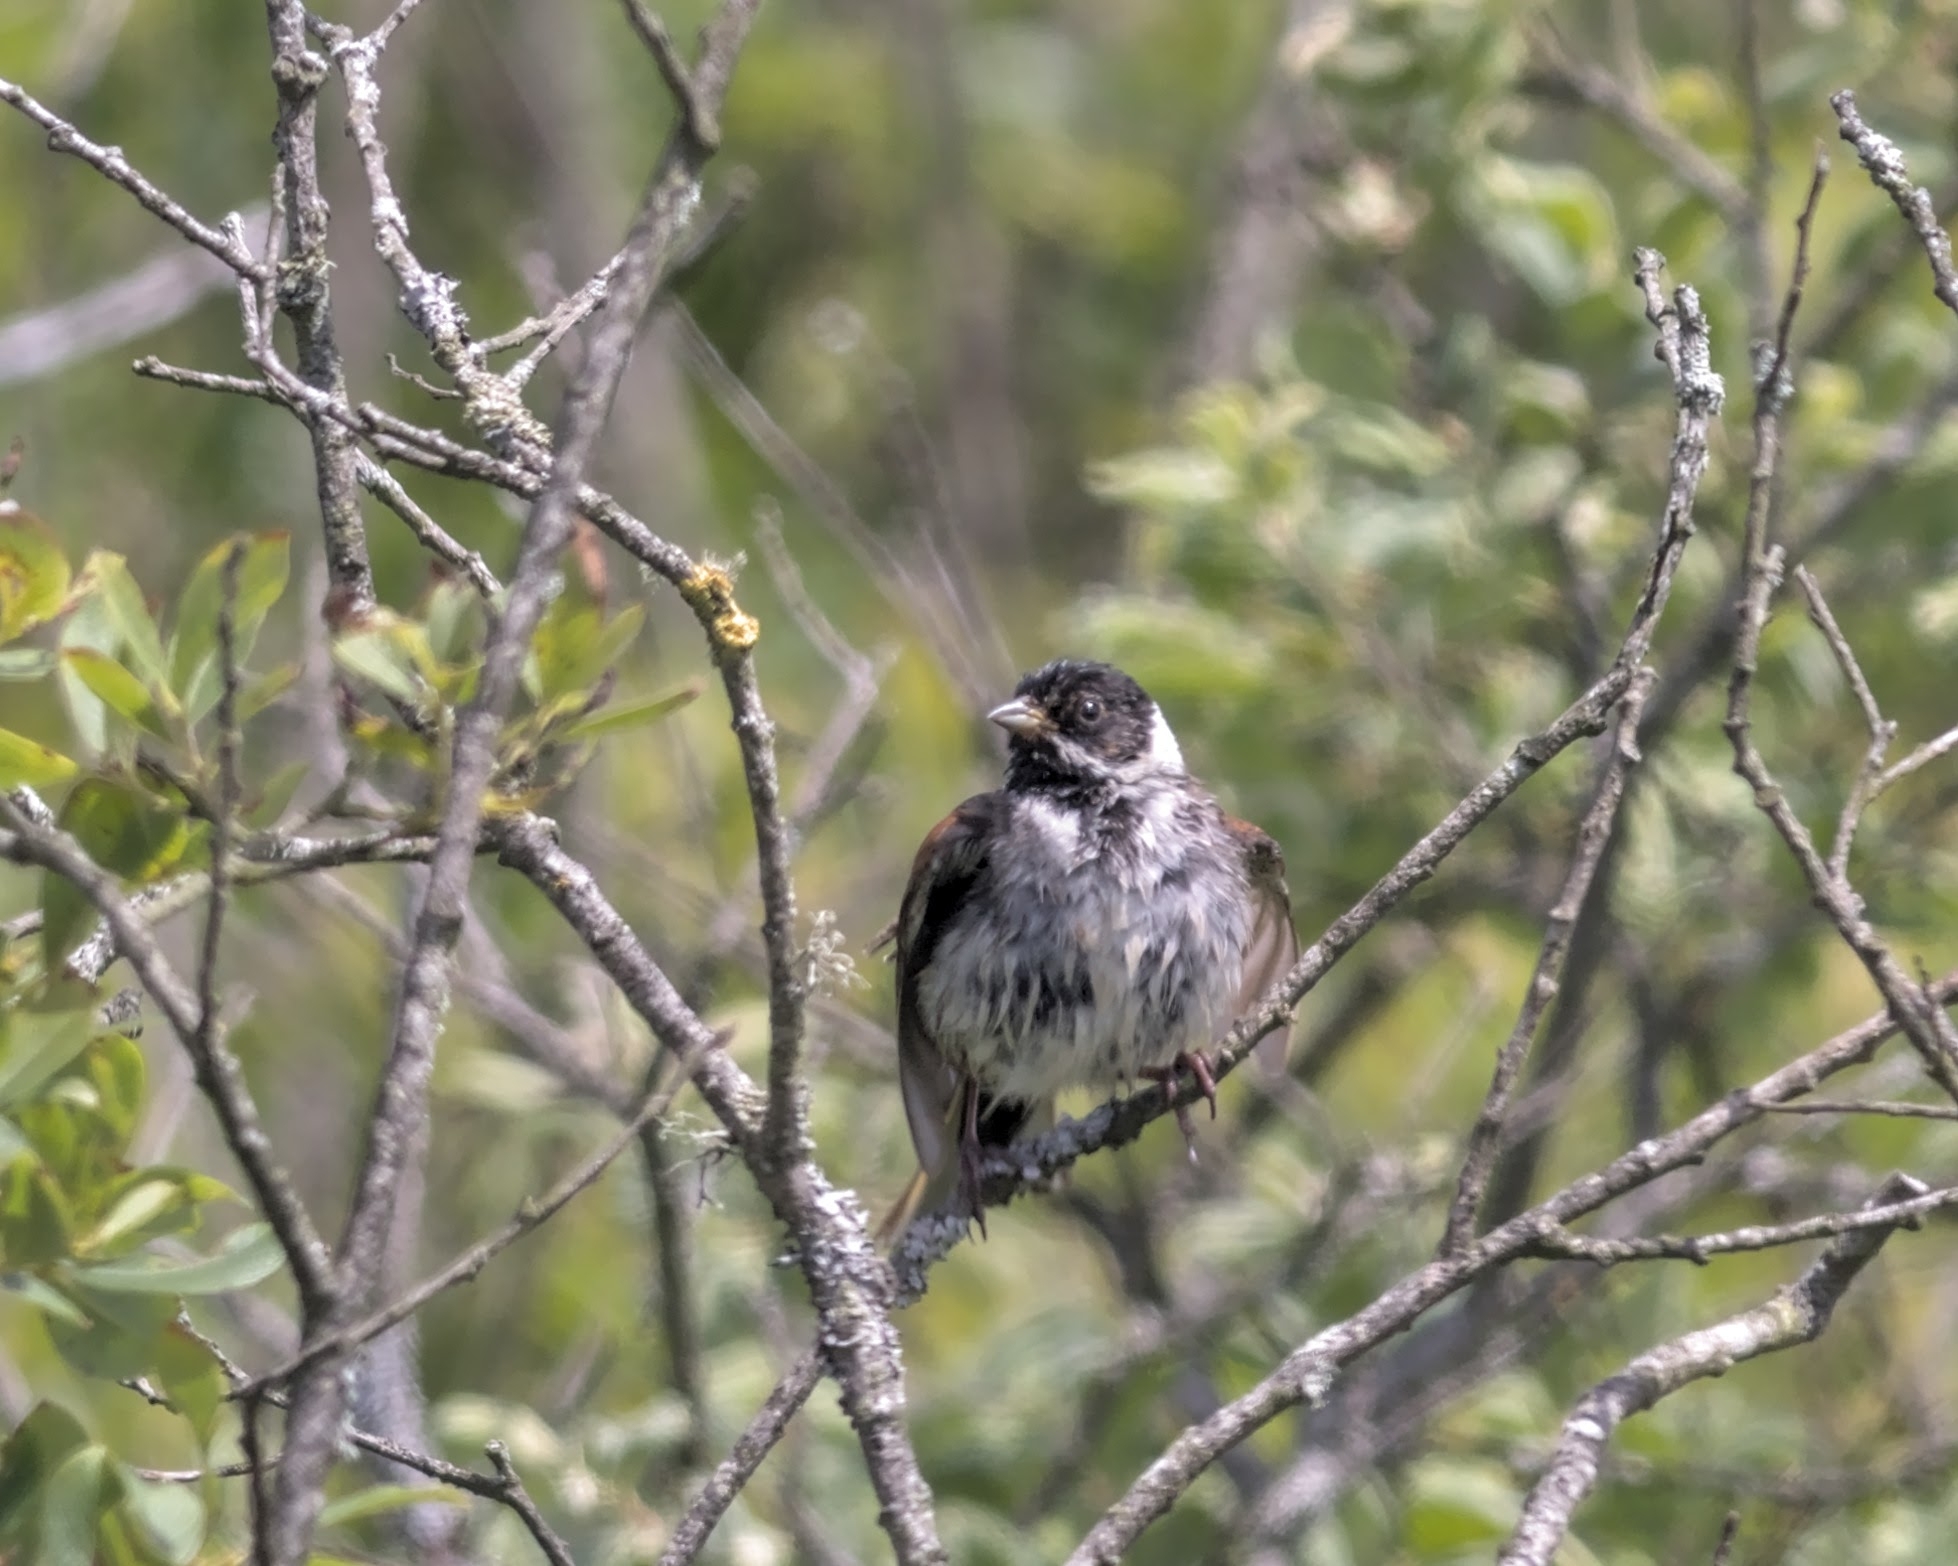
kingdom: Animalia
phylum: Chordata
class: Aves
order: Passeriformes
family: Emberizidae
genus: Emberiza
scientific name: Emberiza schoeniclus
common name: Reed bunting
